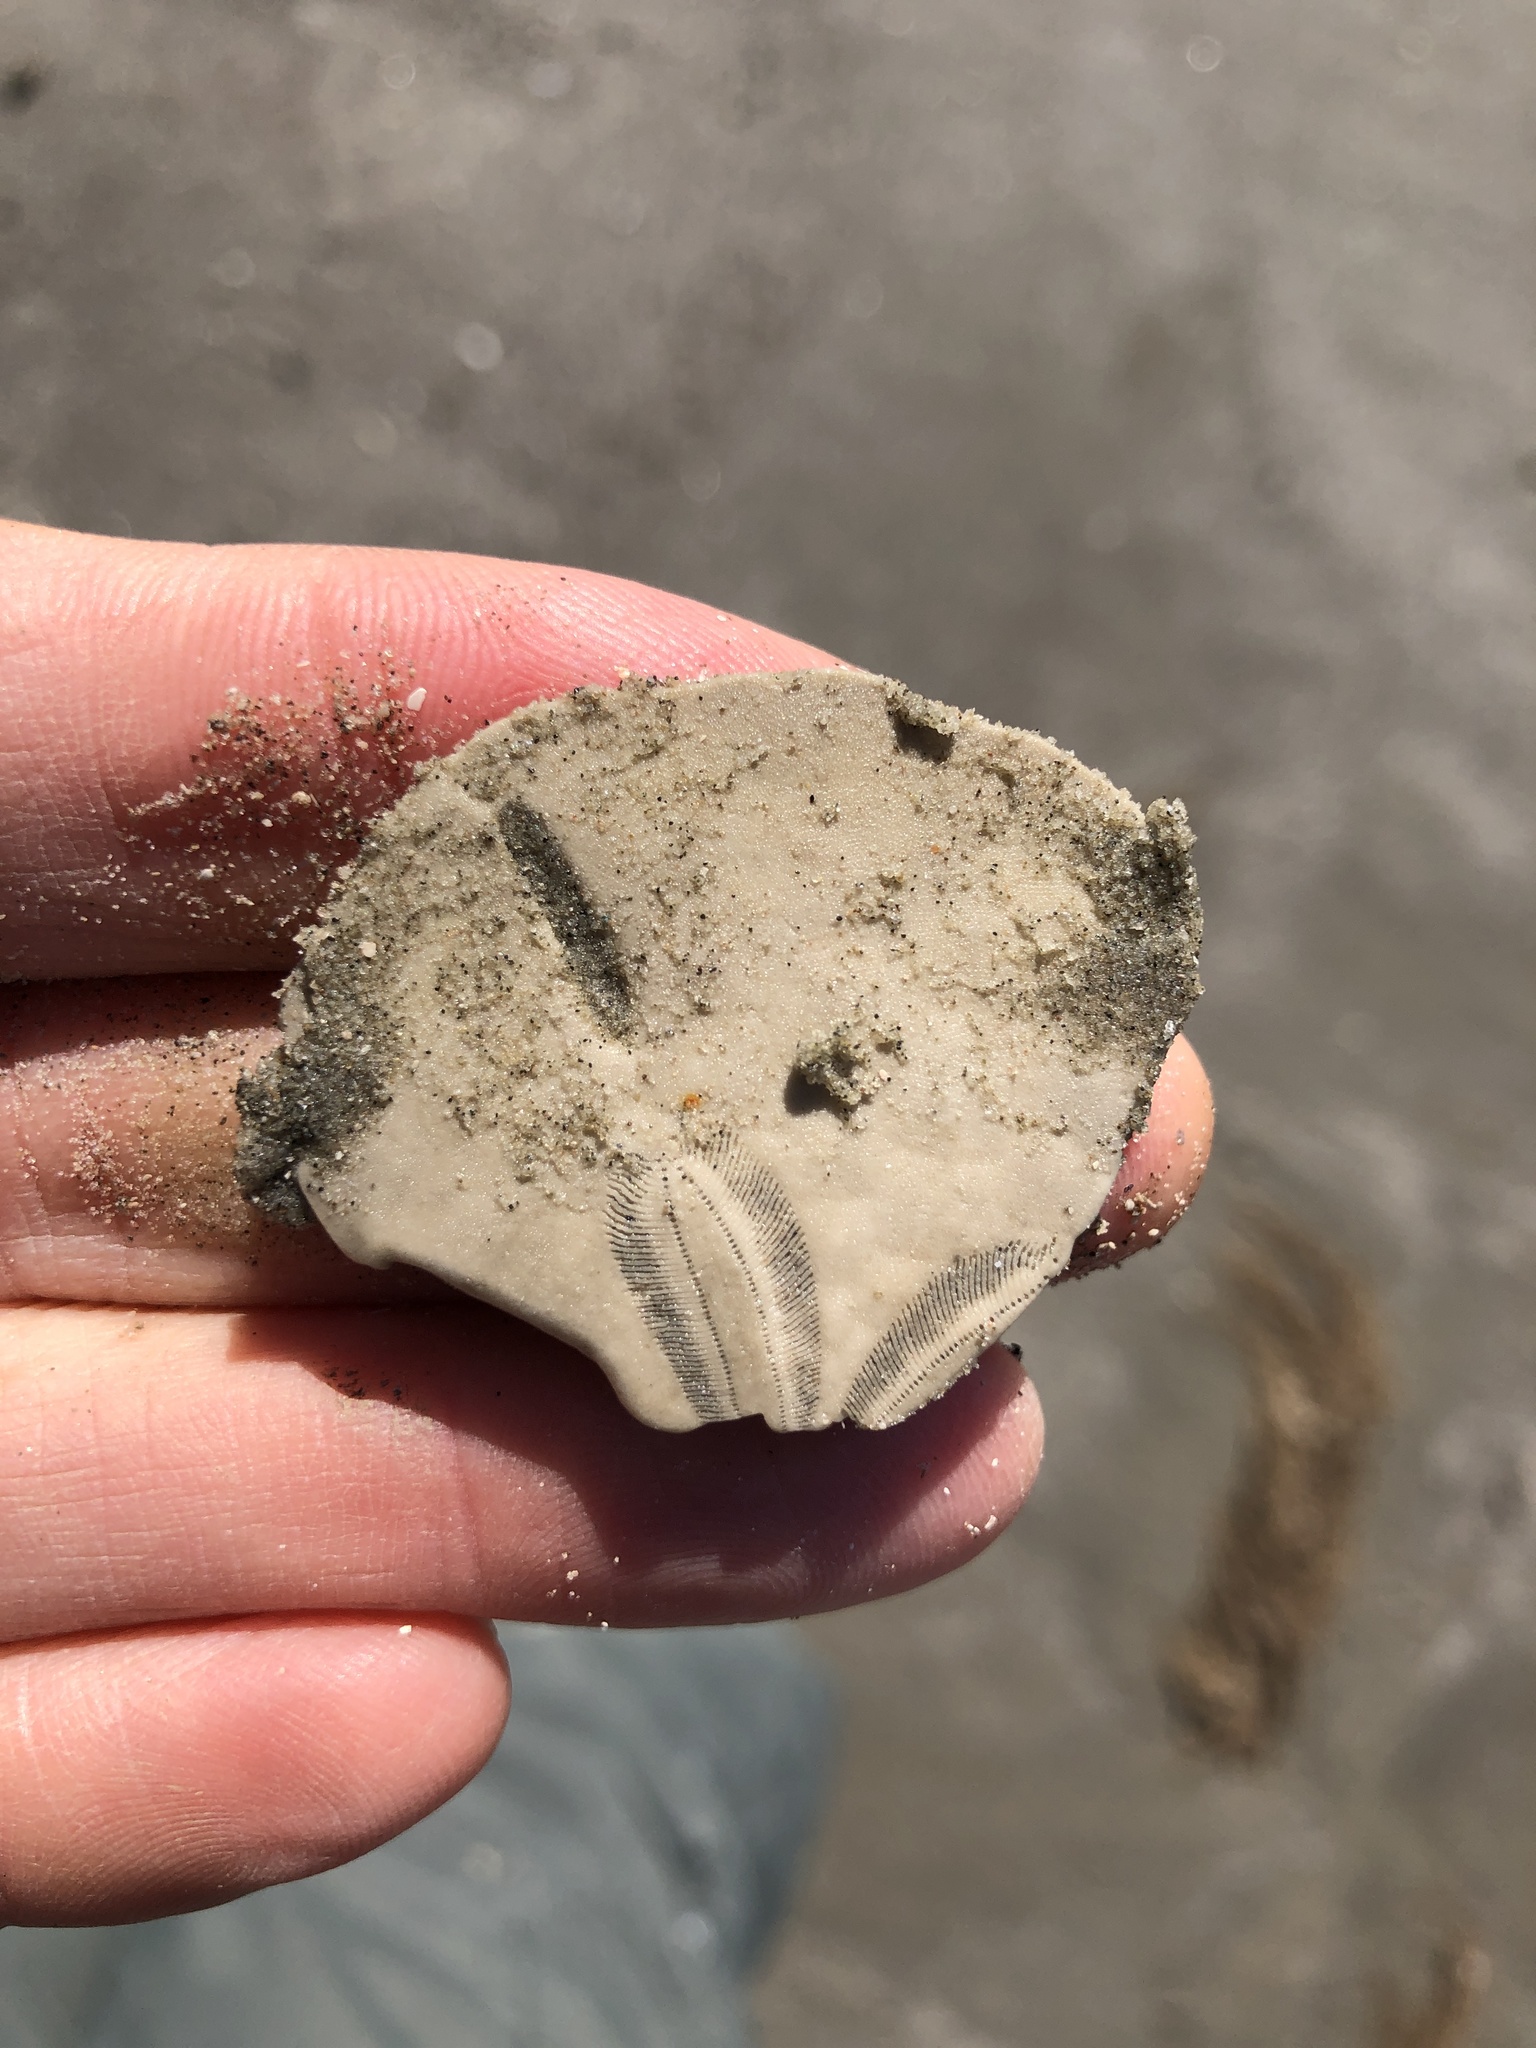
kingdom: Animalia
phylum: Echinodermata
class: Echinoidea
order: Echinolampadacea
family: Mellitidae
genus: Mellita
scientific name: Mellita quinquiesperforata
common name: Sand dollar
